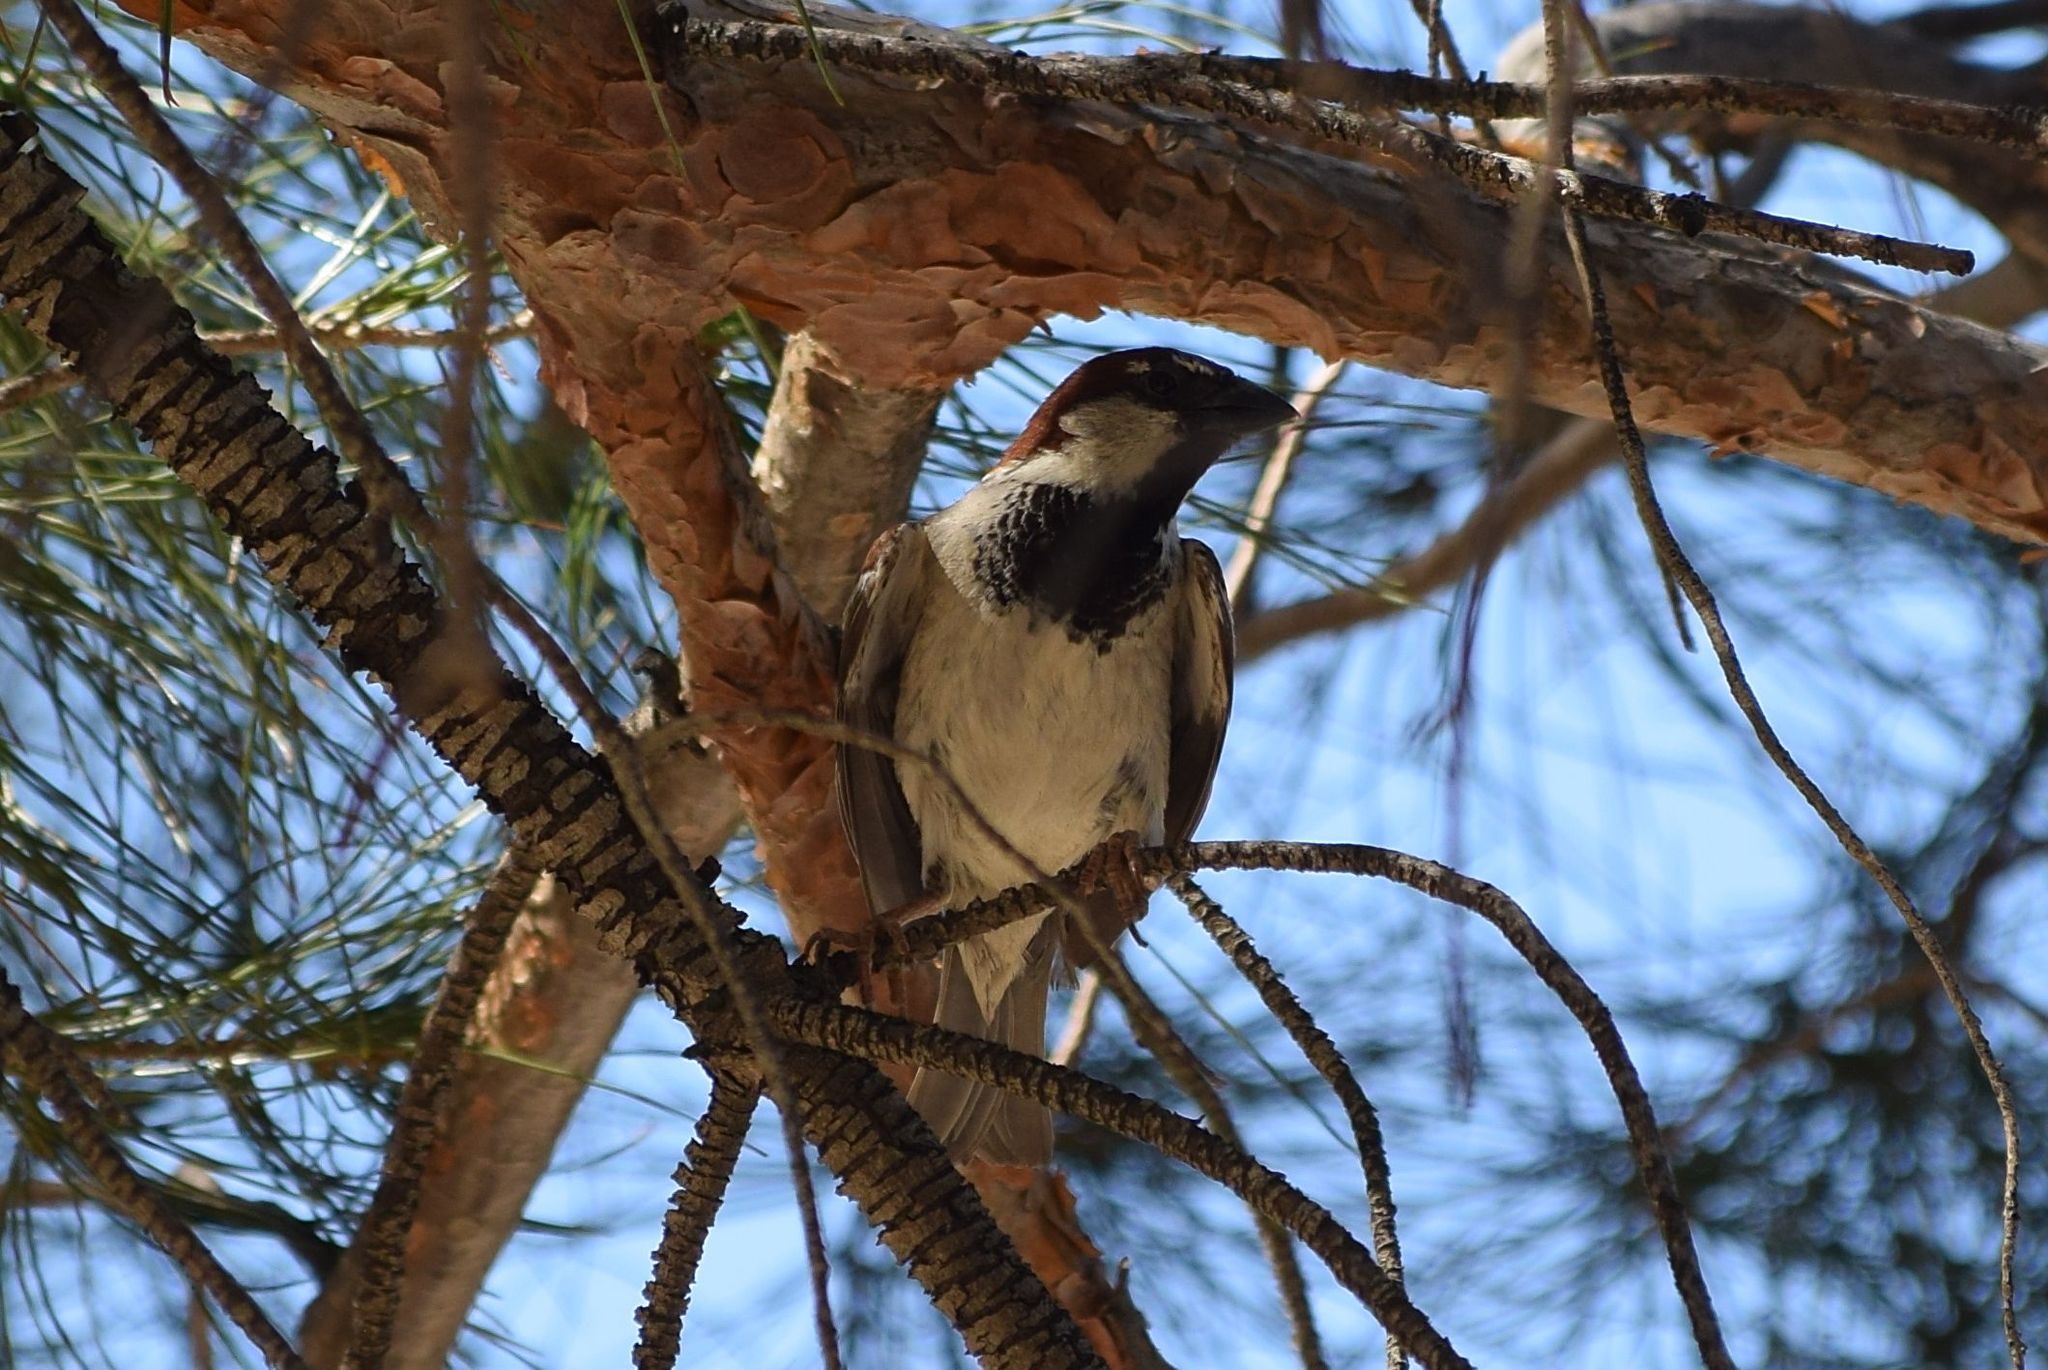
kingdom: Animalia
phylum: Chordata
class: Aves
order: Passeriformes
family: Passeridae
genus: Passer
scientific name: Passer domesticus
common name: House sparrow
